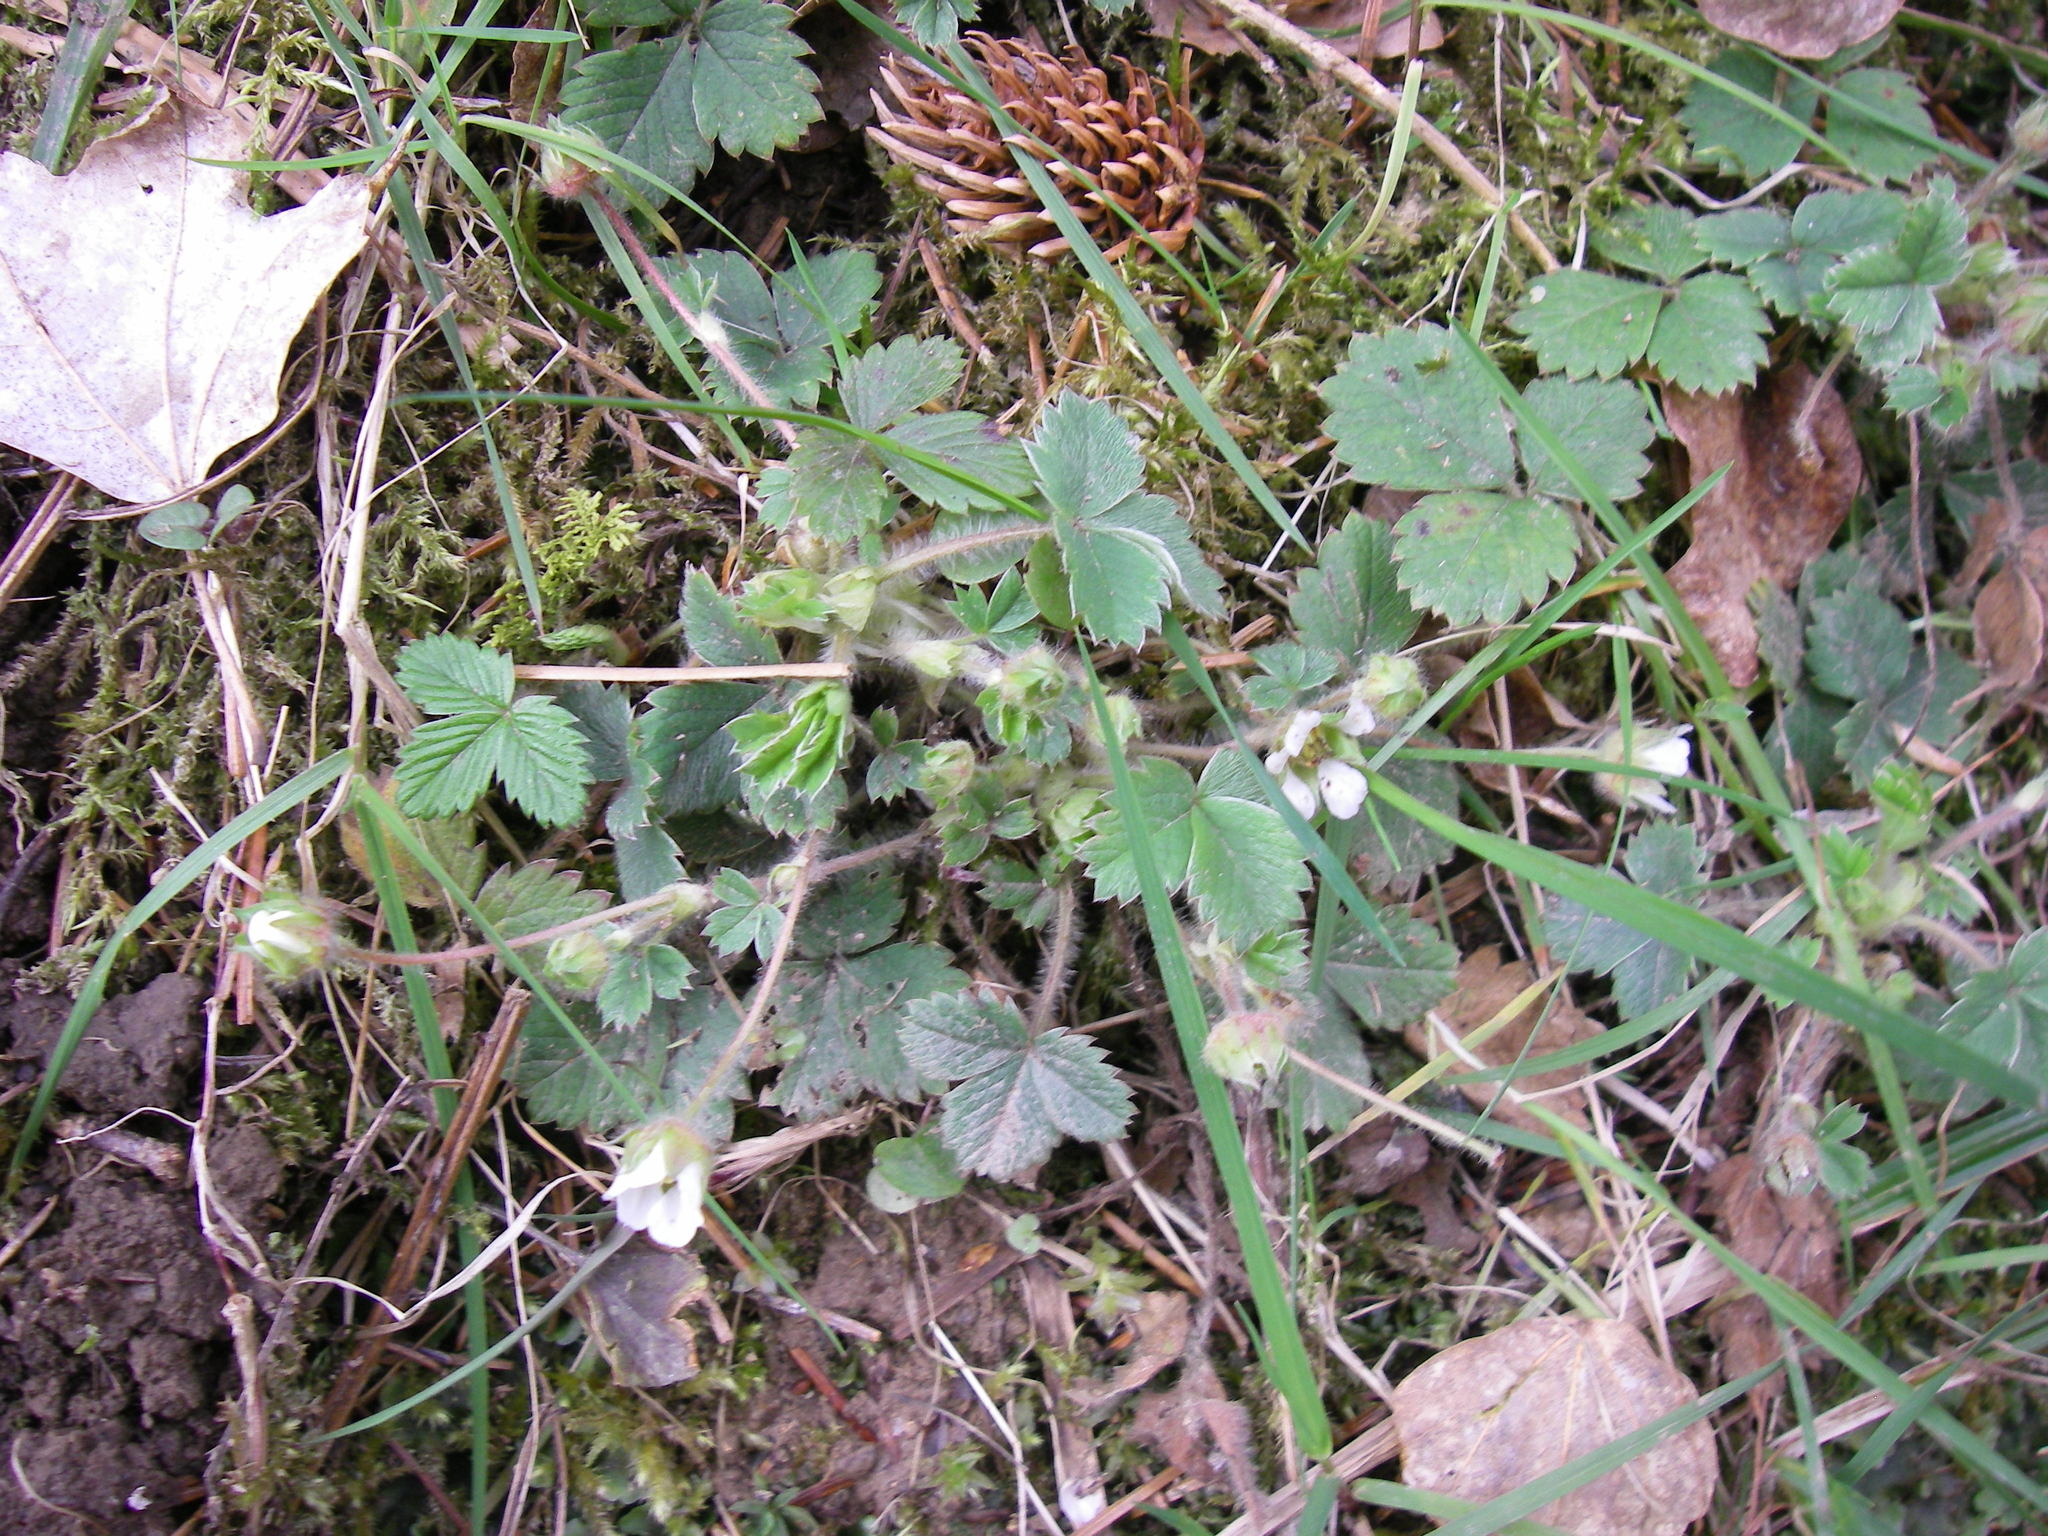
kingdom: Plantae
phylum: Tracheophyta
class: Magnoliopsida
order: Rosales
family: Rosaceae
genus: Potentilla
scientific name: Potentilla sterilis
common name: Barren strawberry
